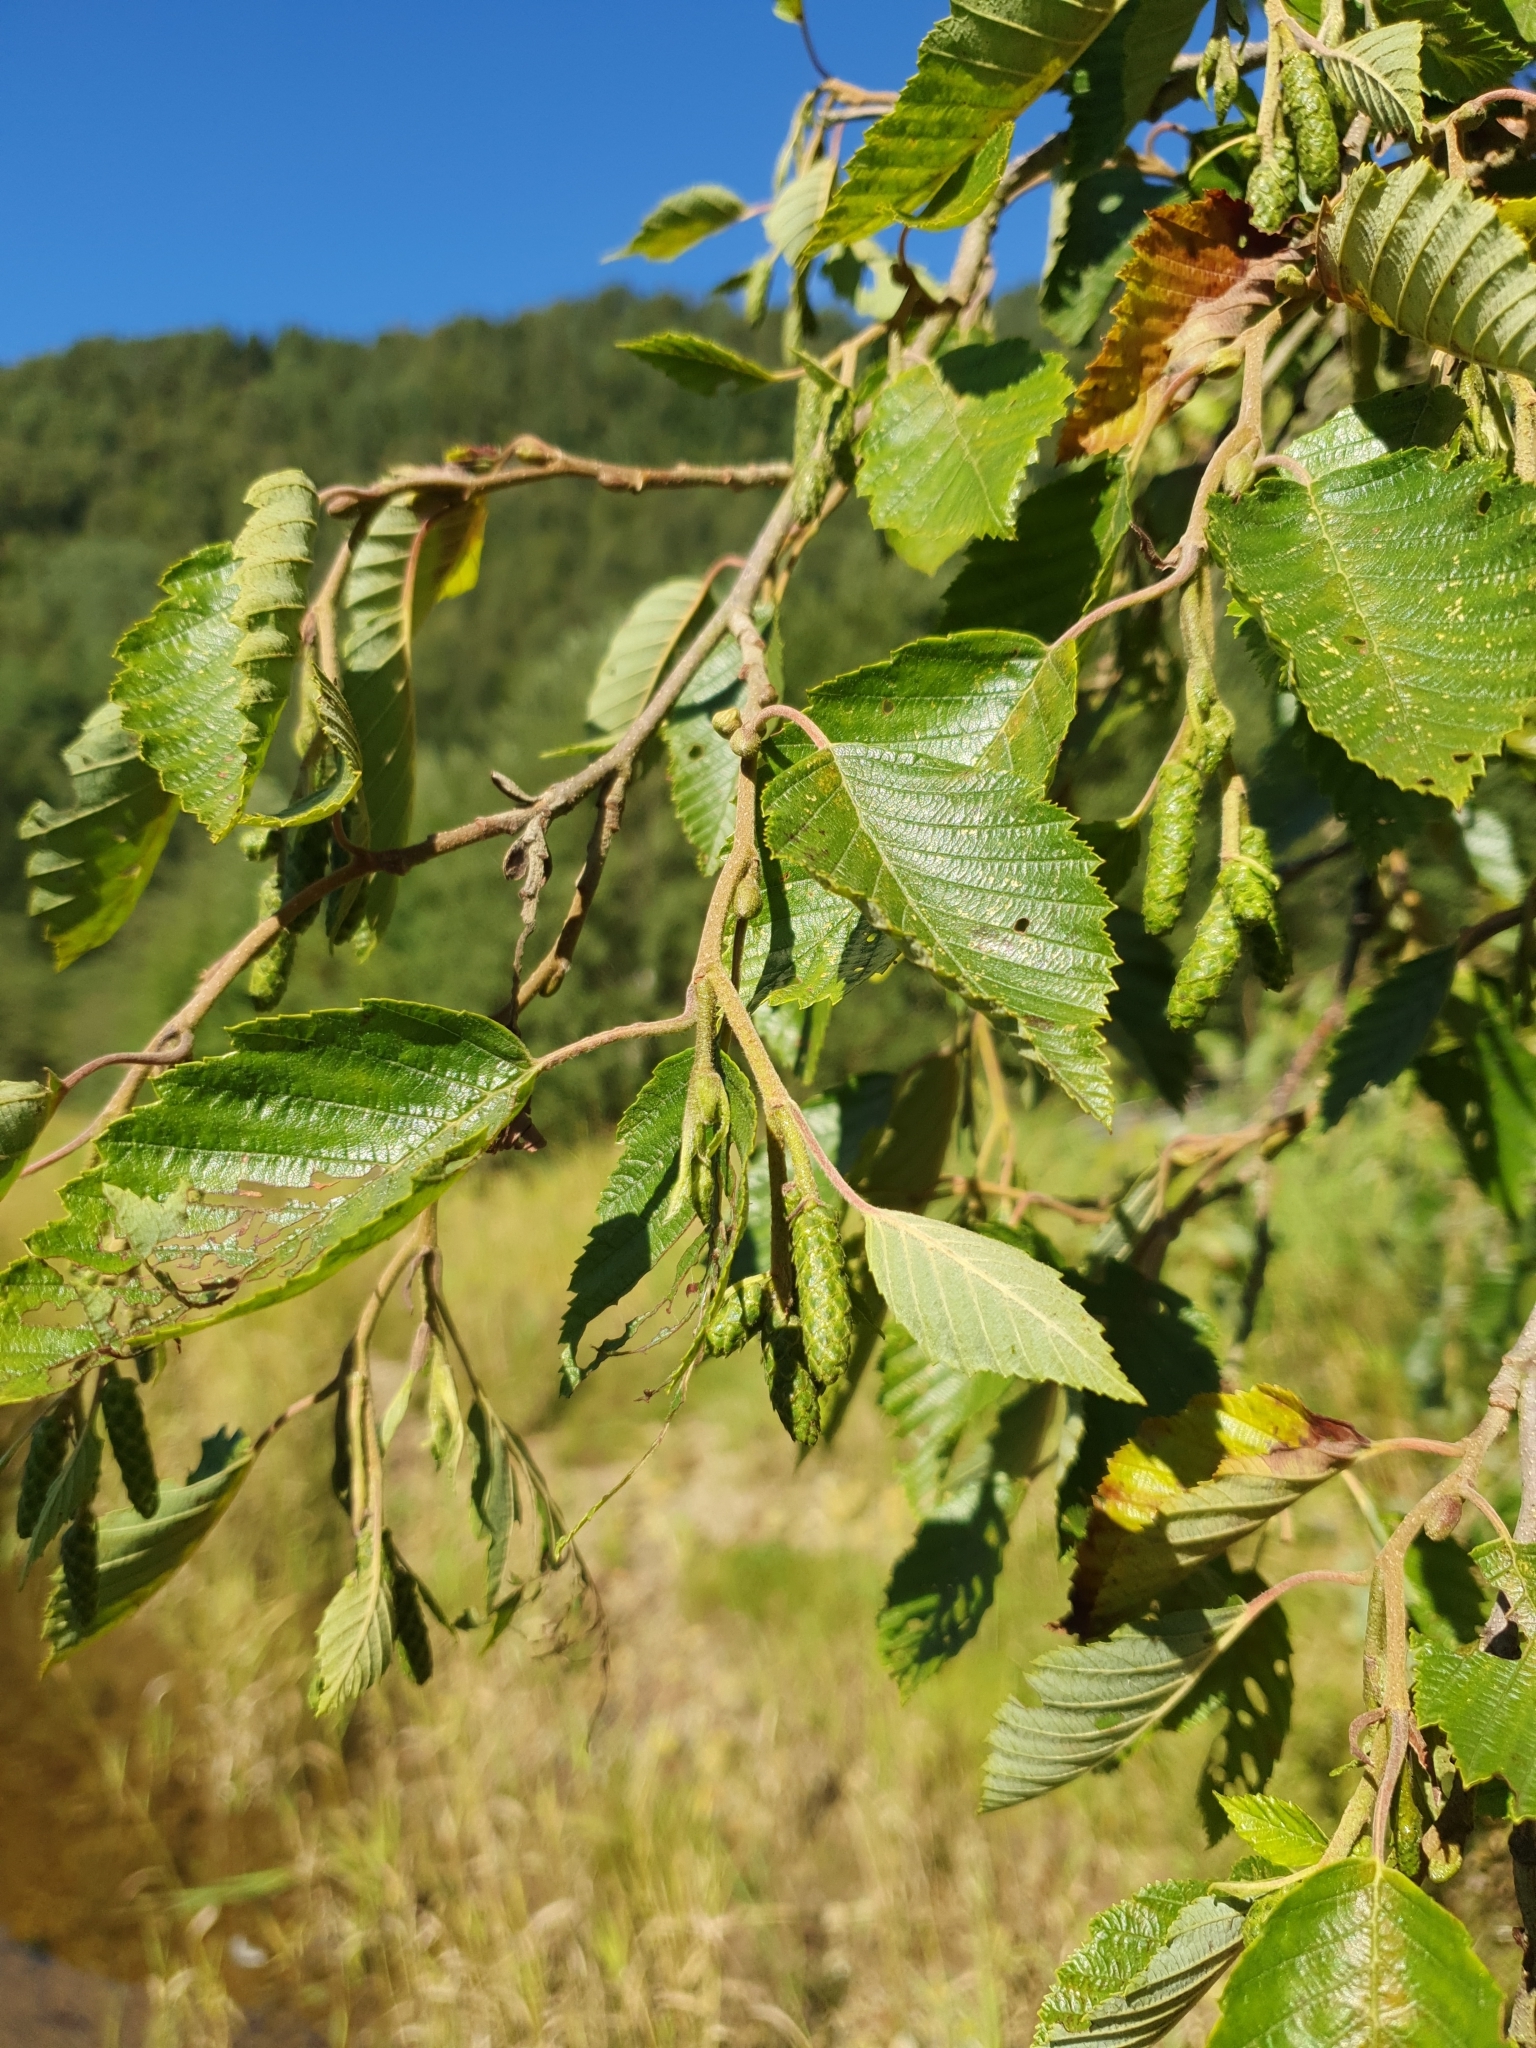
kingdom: Plantae
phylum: Tracheophyta
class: Magnoliopsida
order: Fagales
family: Betulaceae
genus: Alnus
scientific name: Alnus incana
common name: Grey alder
